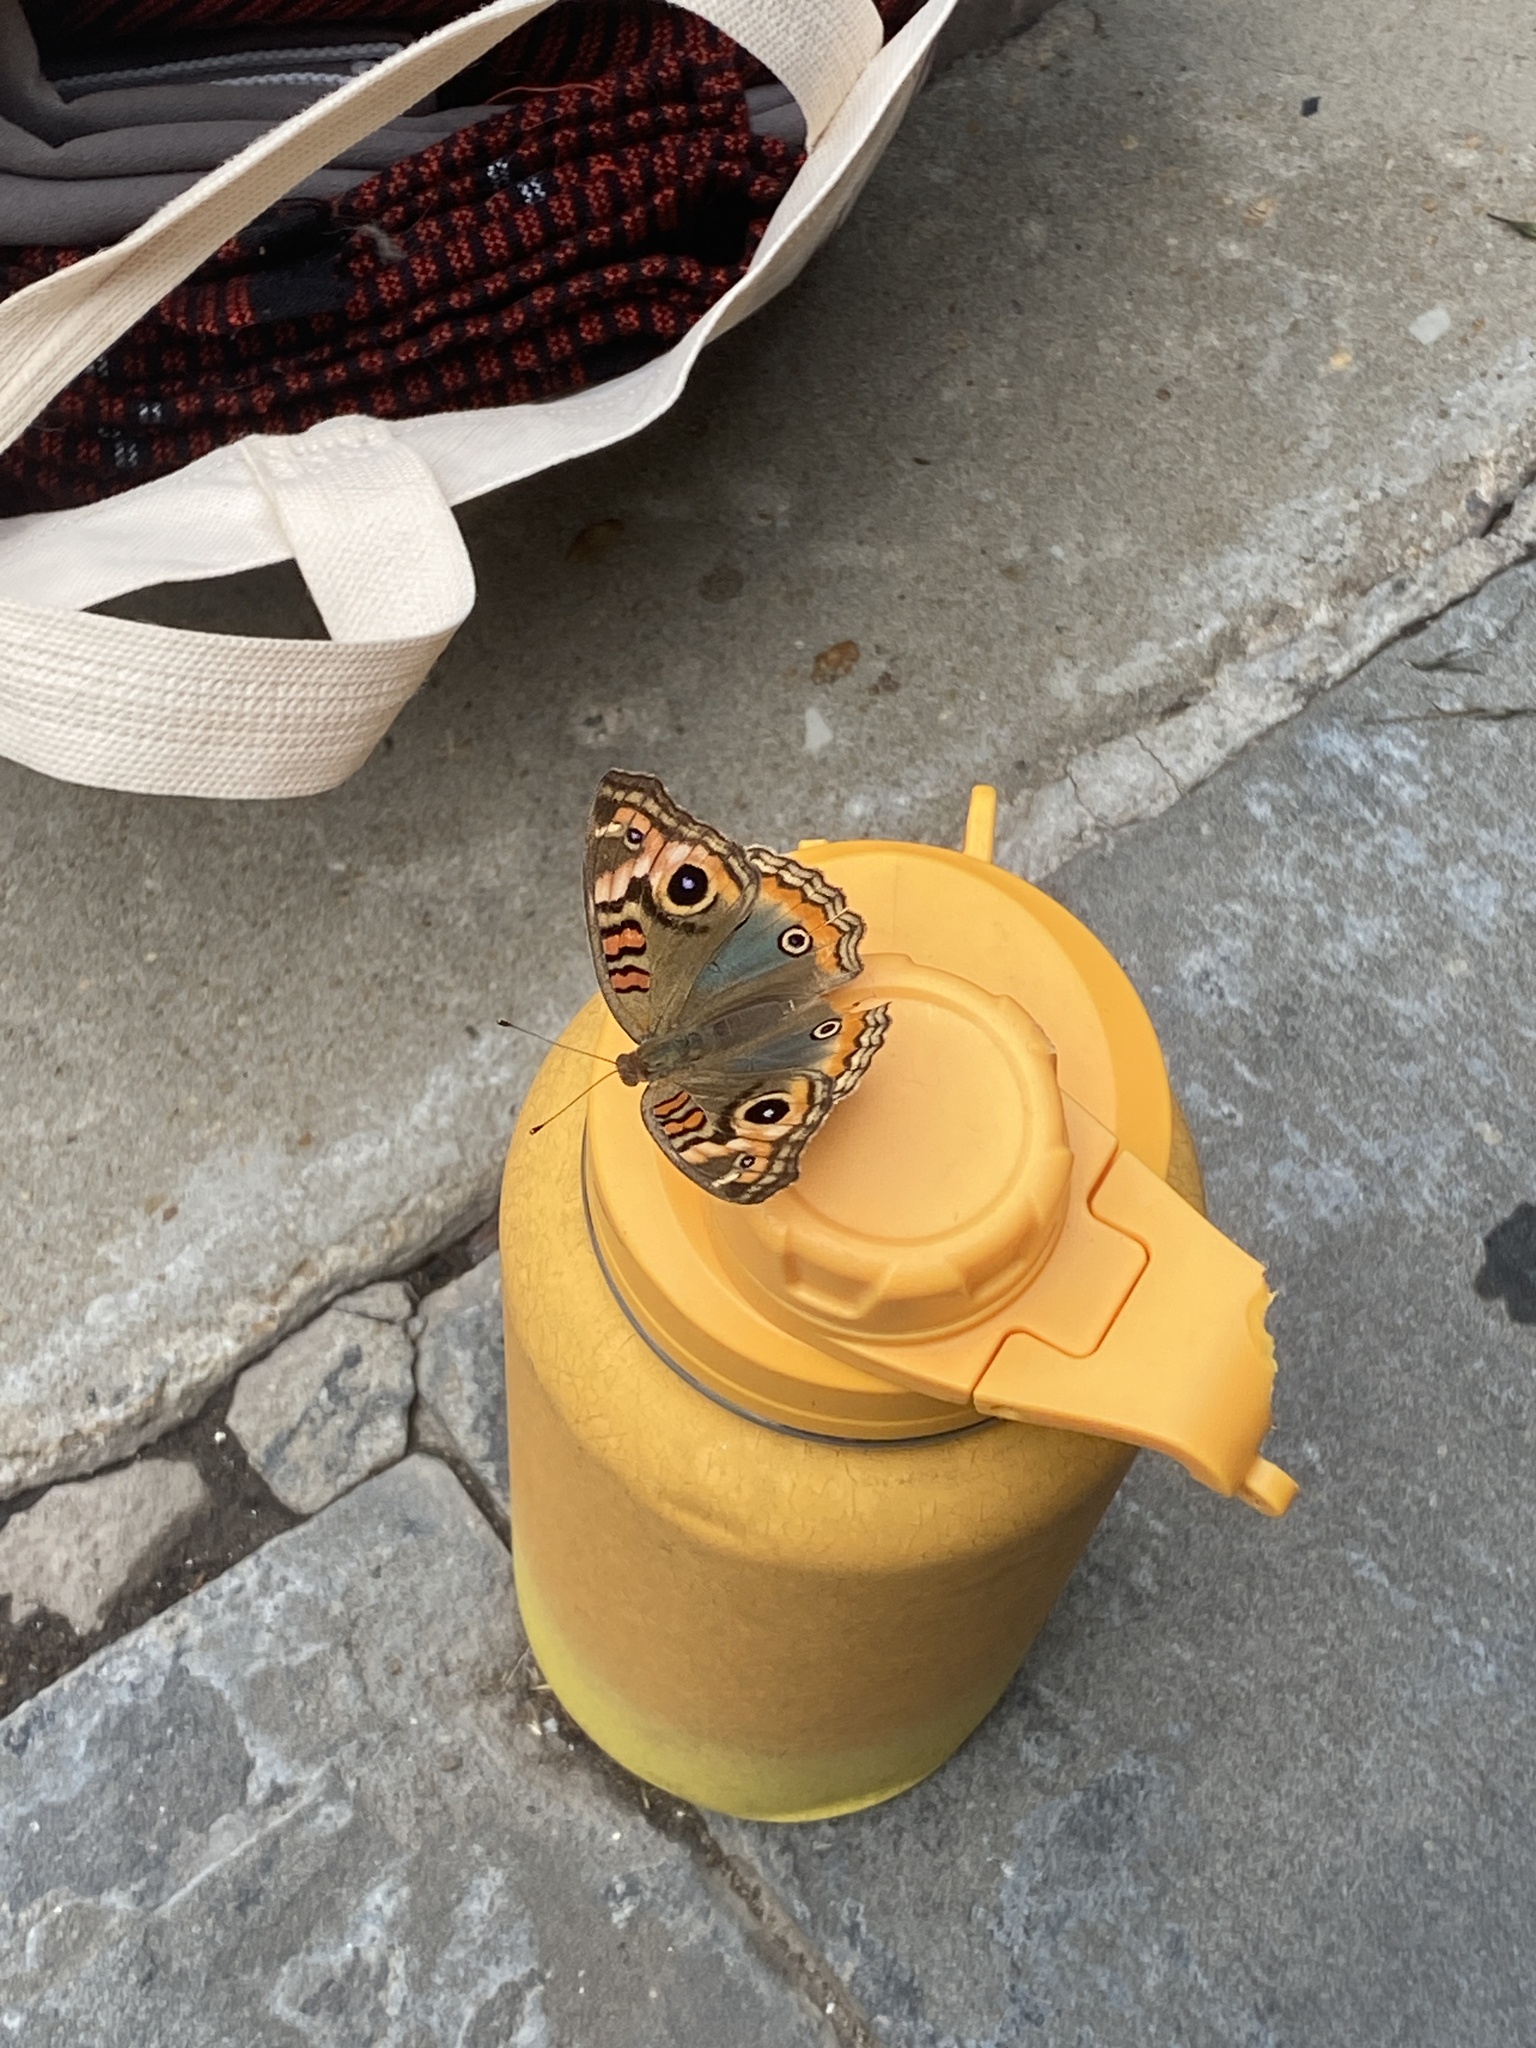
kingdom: Animalia
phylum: Arthropoda
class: Insecta
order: Lepidoptera
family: Nymphalidae
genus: Junonia
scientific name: Junonia lavinia
